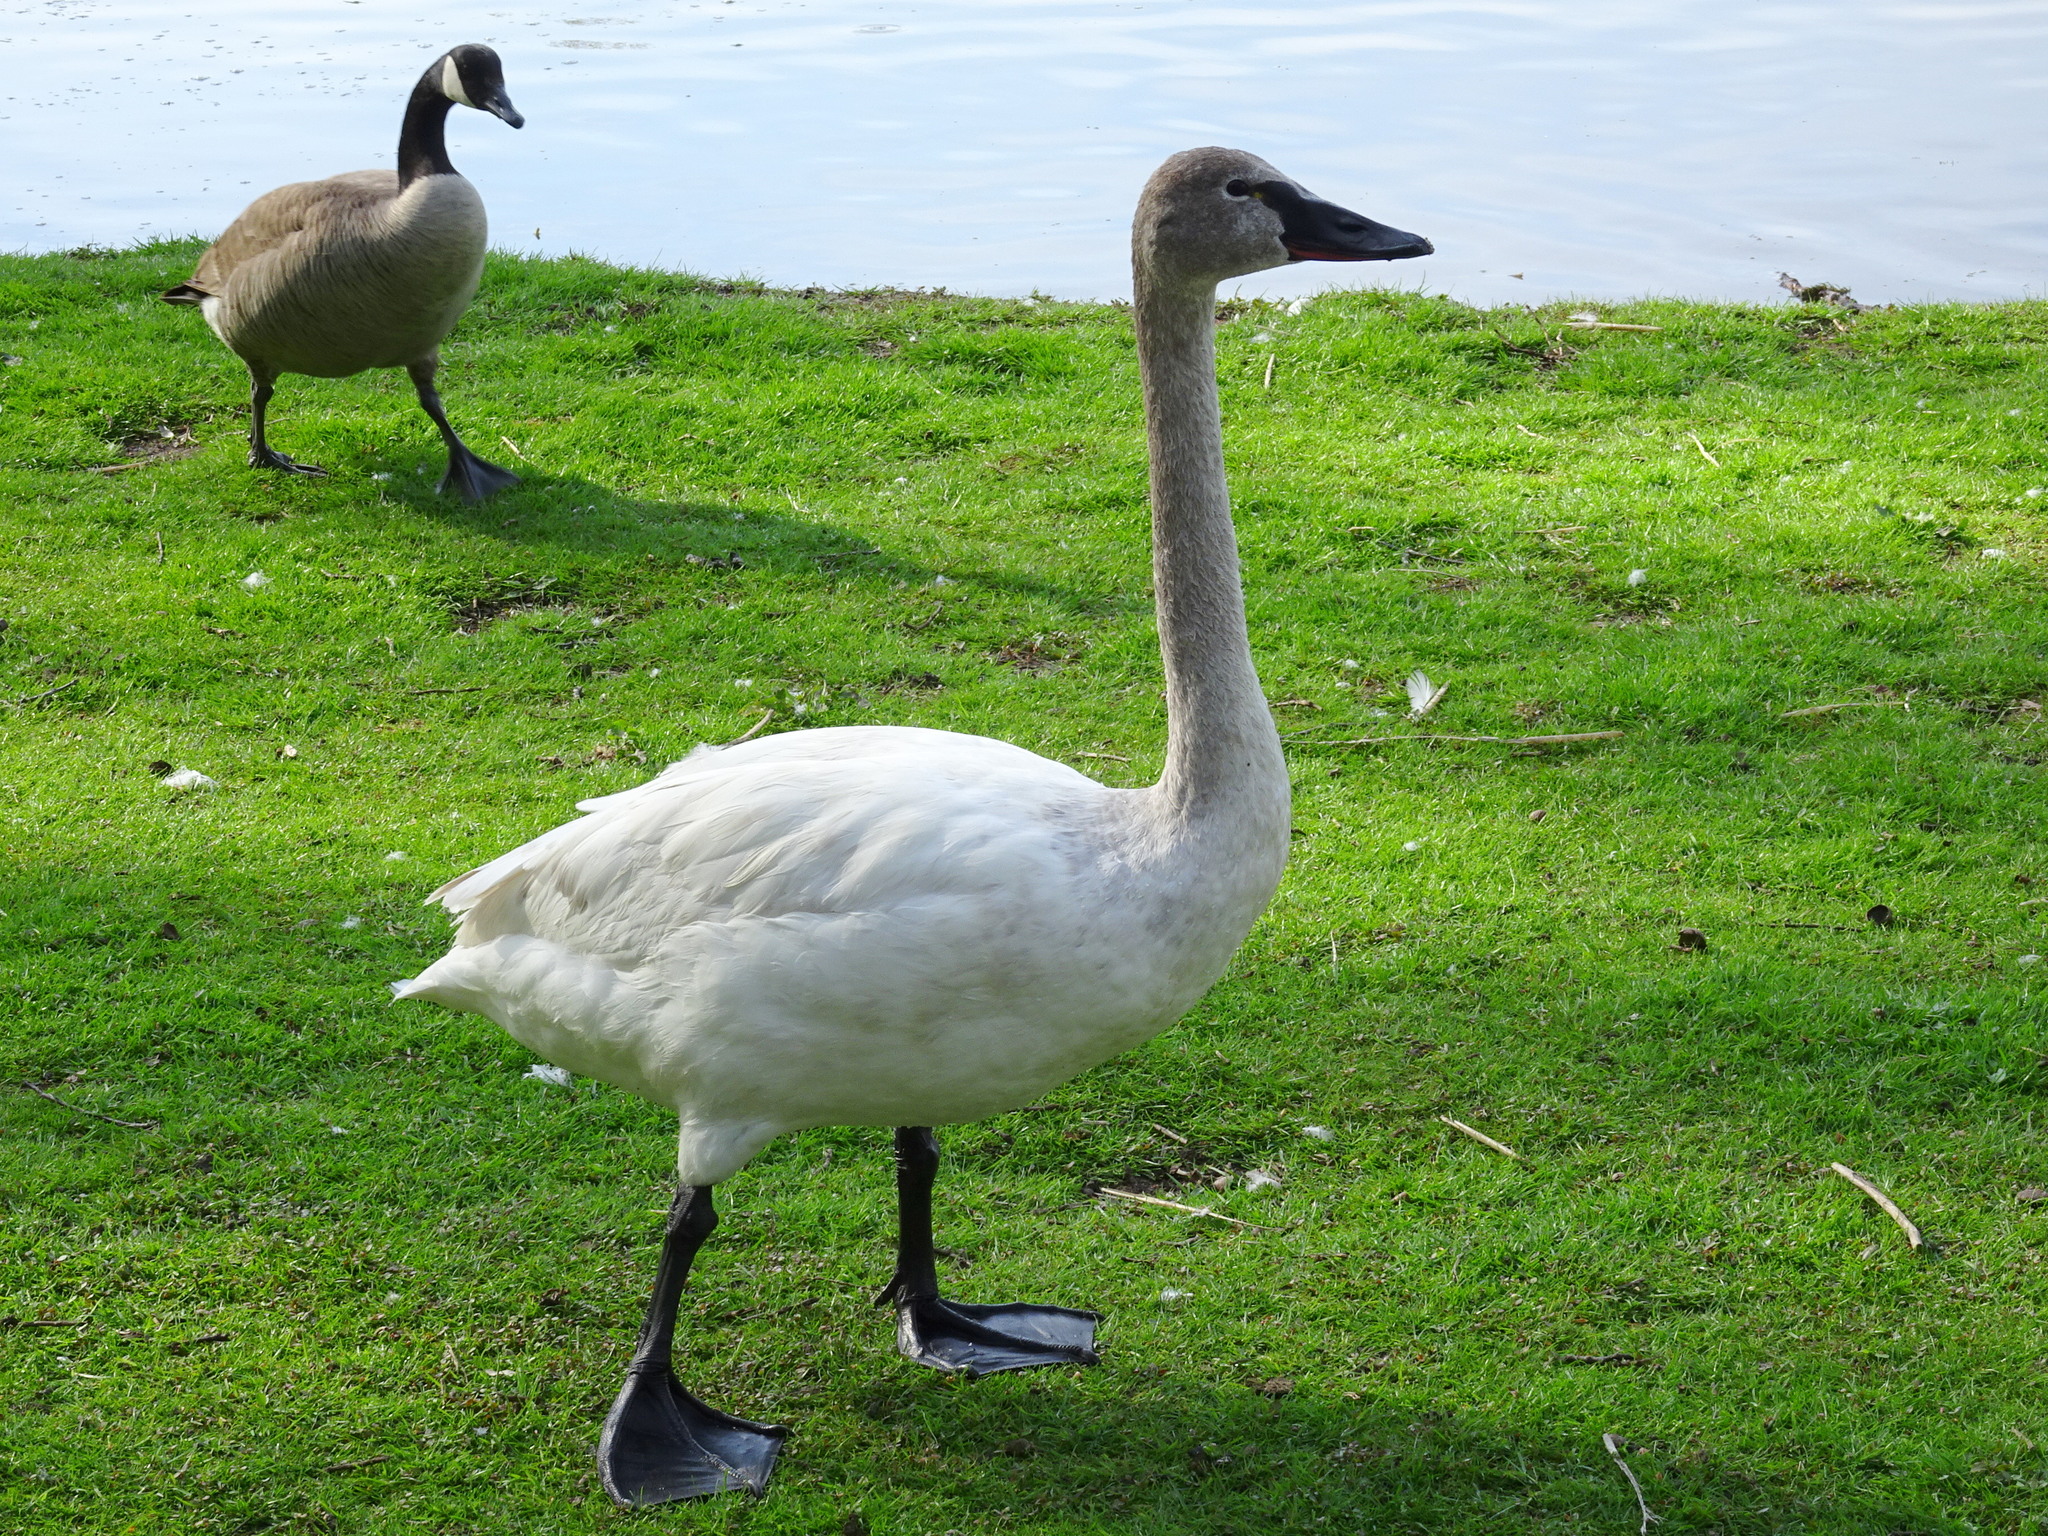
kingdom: Animalia
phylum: Chordata
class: Aves
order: Anseriformes
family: Anatidae
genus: Cygnus
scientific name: Cygnus columbianus
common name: Tundra swan
